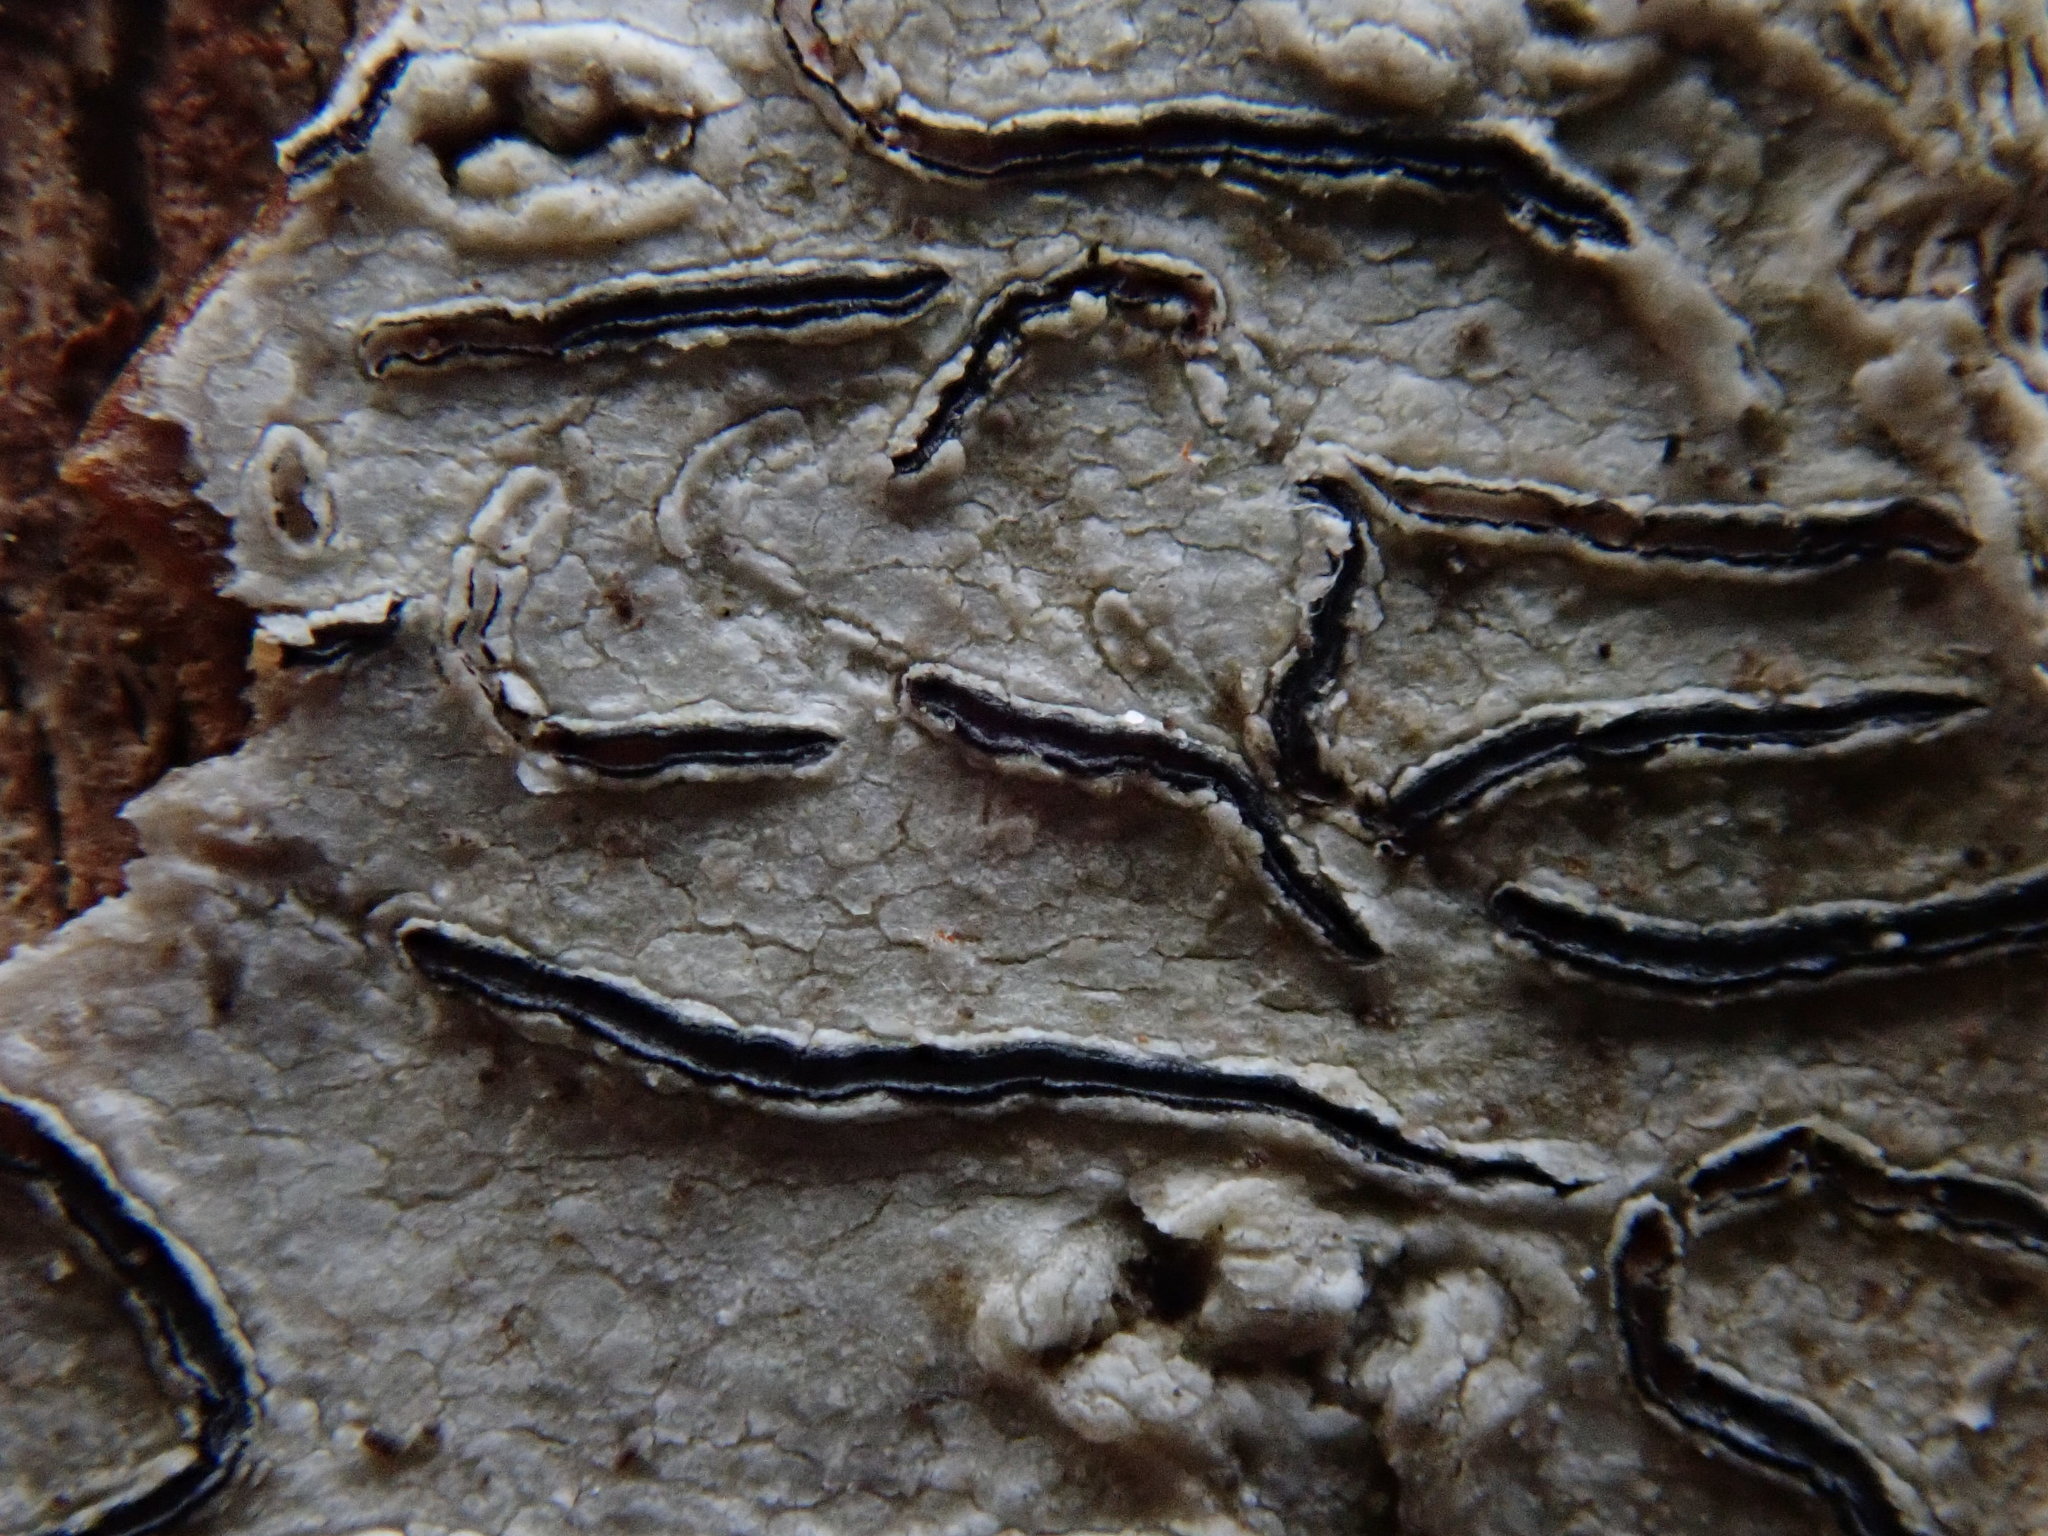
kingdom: Fungi
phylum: Ascomycota
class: Lecanoromycetes
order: Ostropales
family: Graphidaceae
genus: Graphis
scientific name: Graphis scripta
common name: Script lichen
